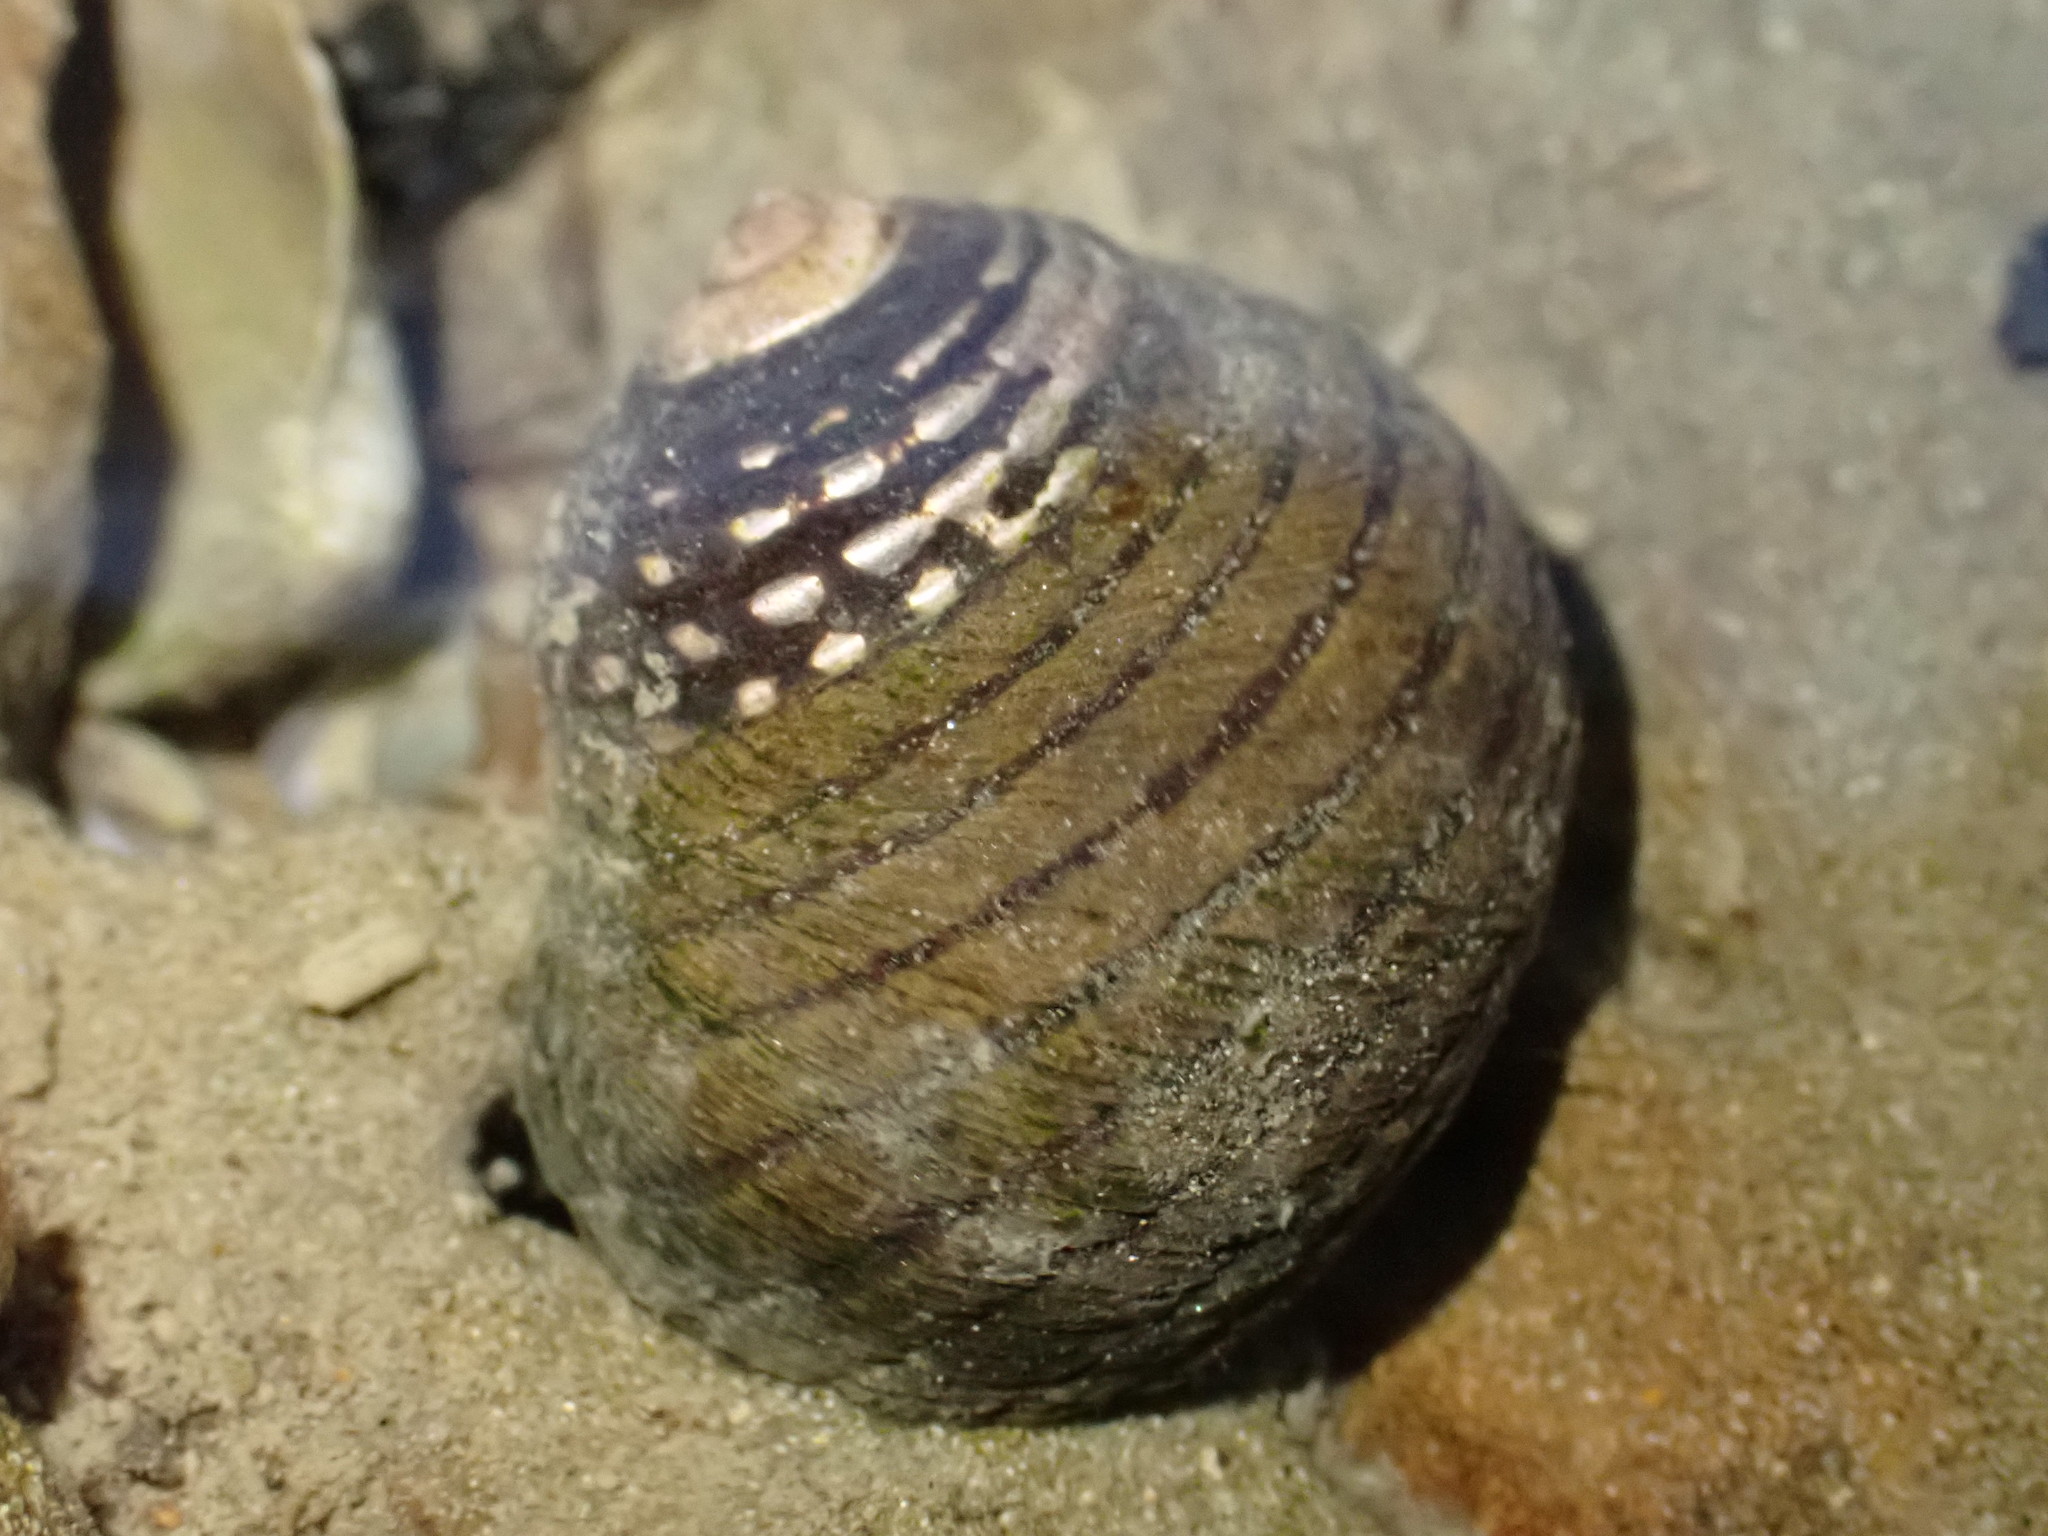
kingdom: Animalia
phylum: Mollusca
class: Gastropoda
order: Trochida
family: Trochidae
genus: Diloma
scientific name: Diloma aethiops
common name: Scorched monodont
